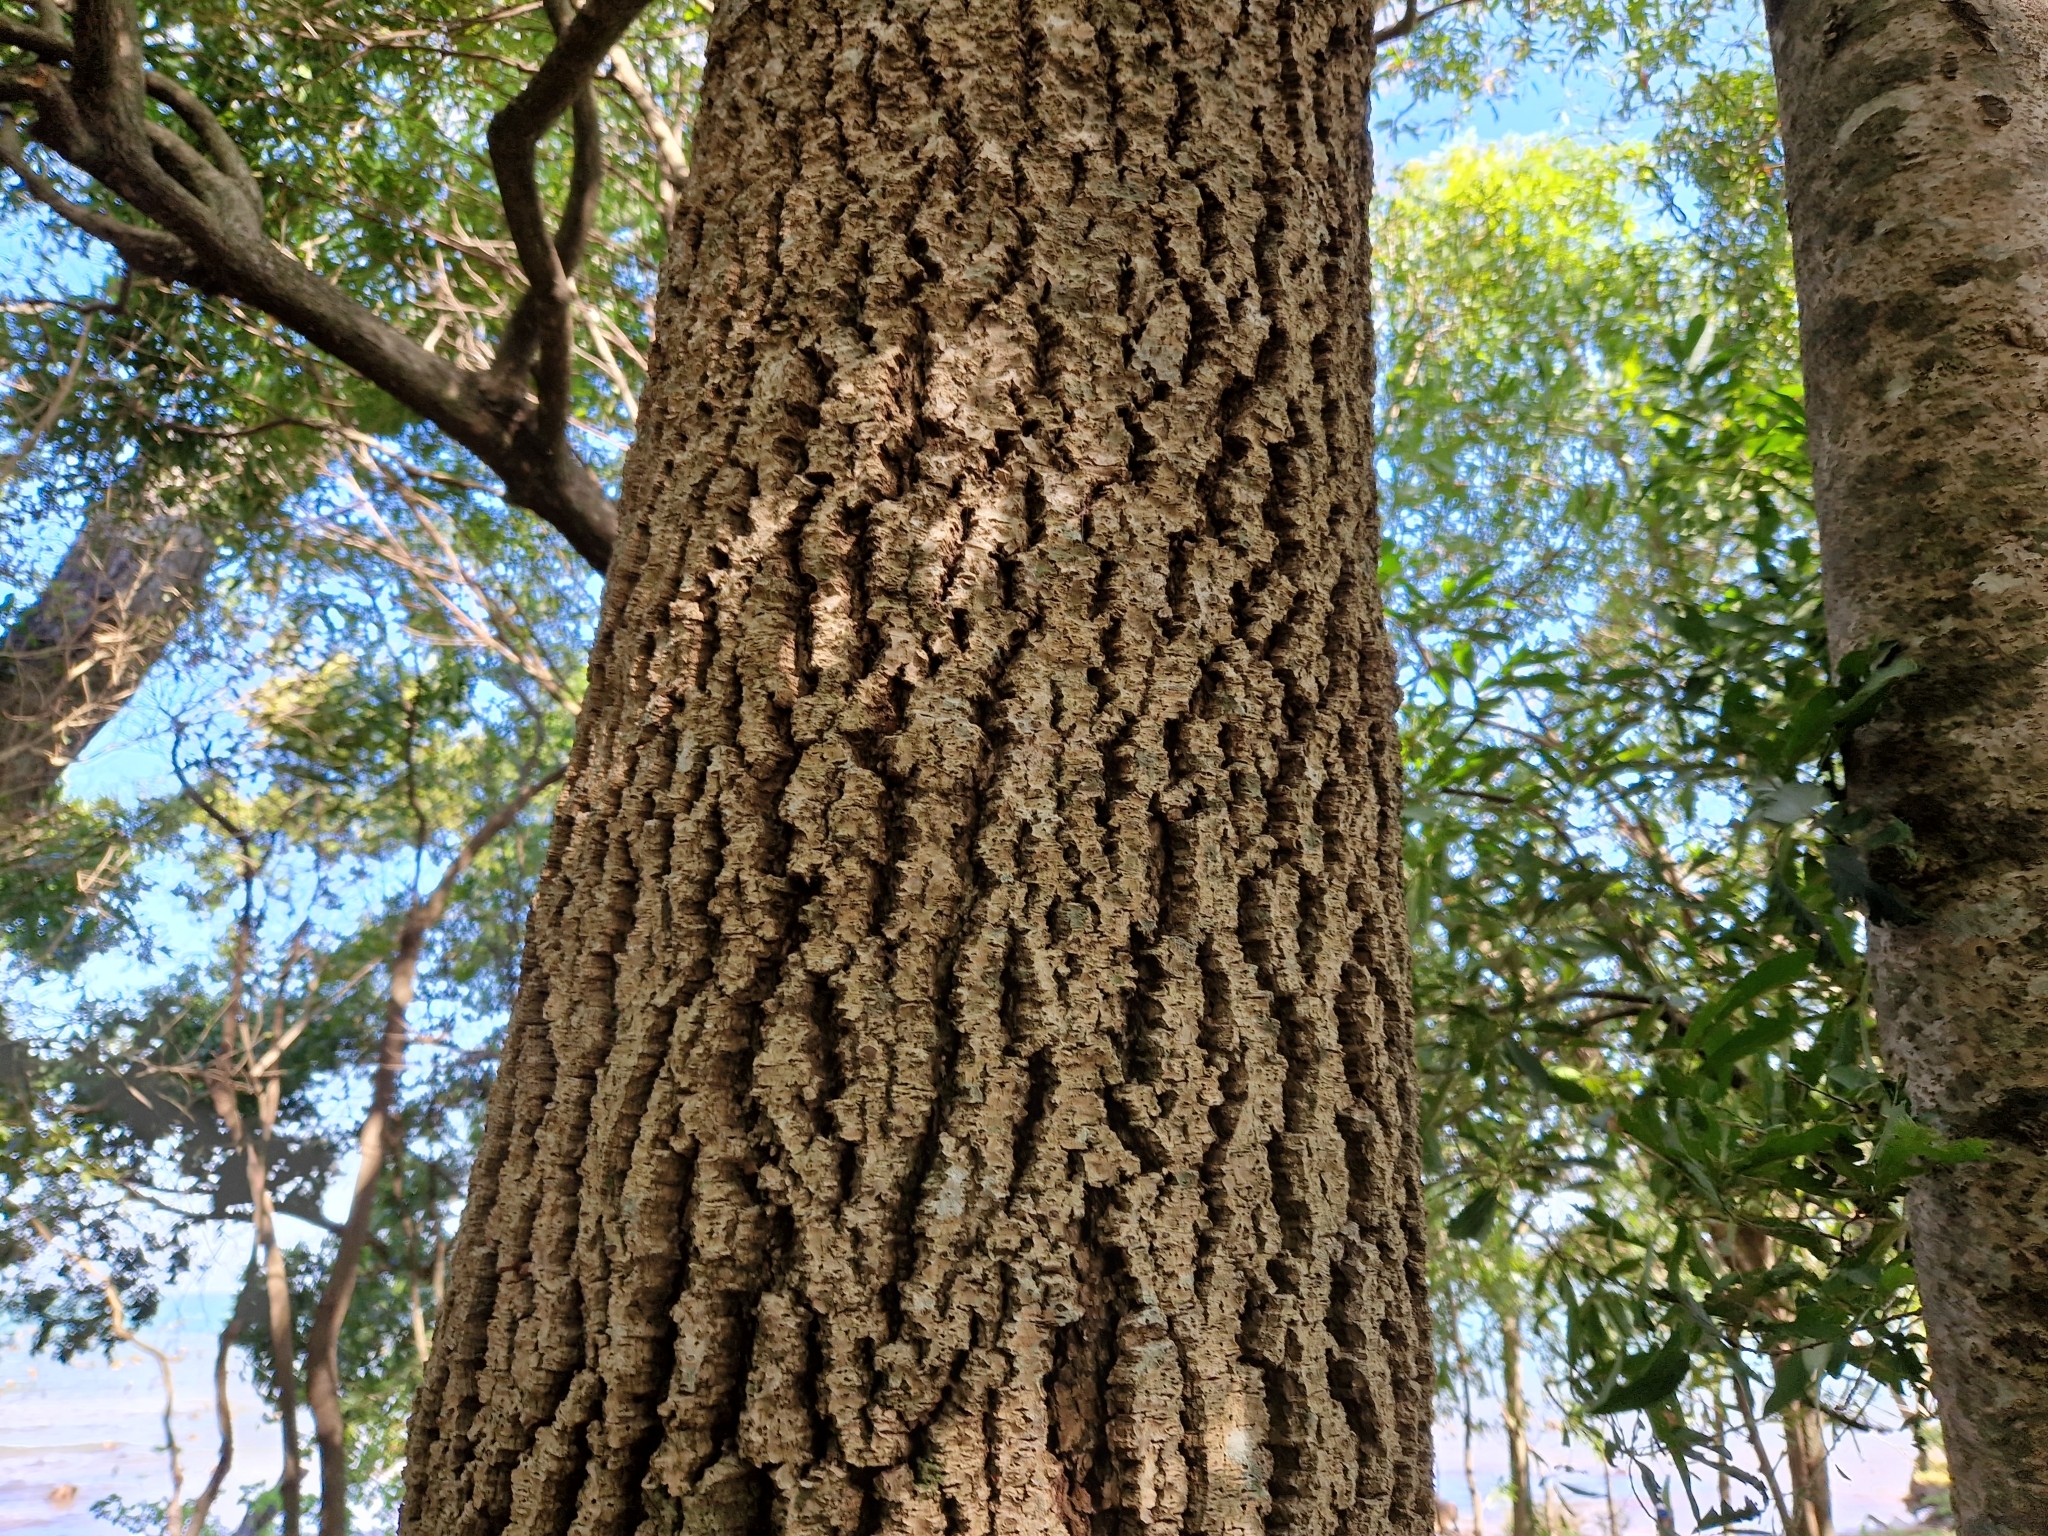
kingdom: Plantae
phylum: Tracheophyta
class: Magnoliopsida
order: Fabales
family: Fabaceae
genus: Myrocarpus
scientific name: Myrocarpus frondosus
